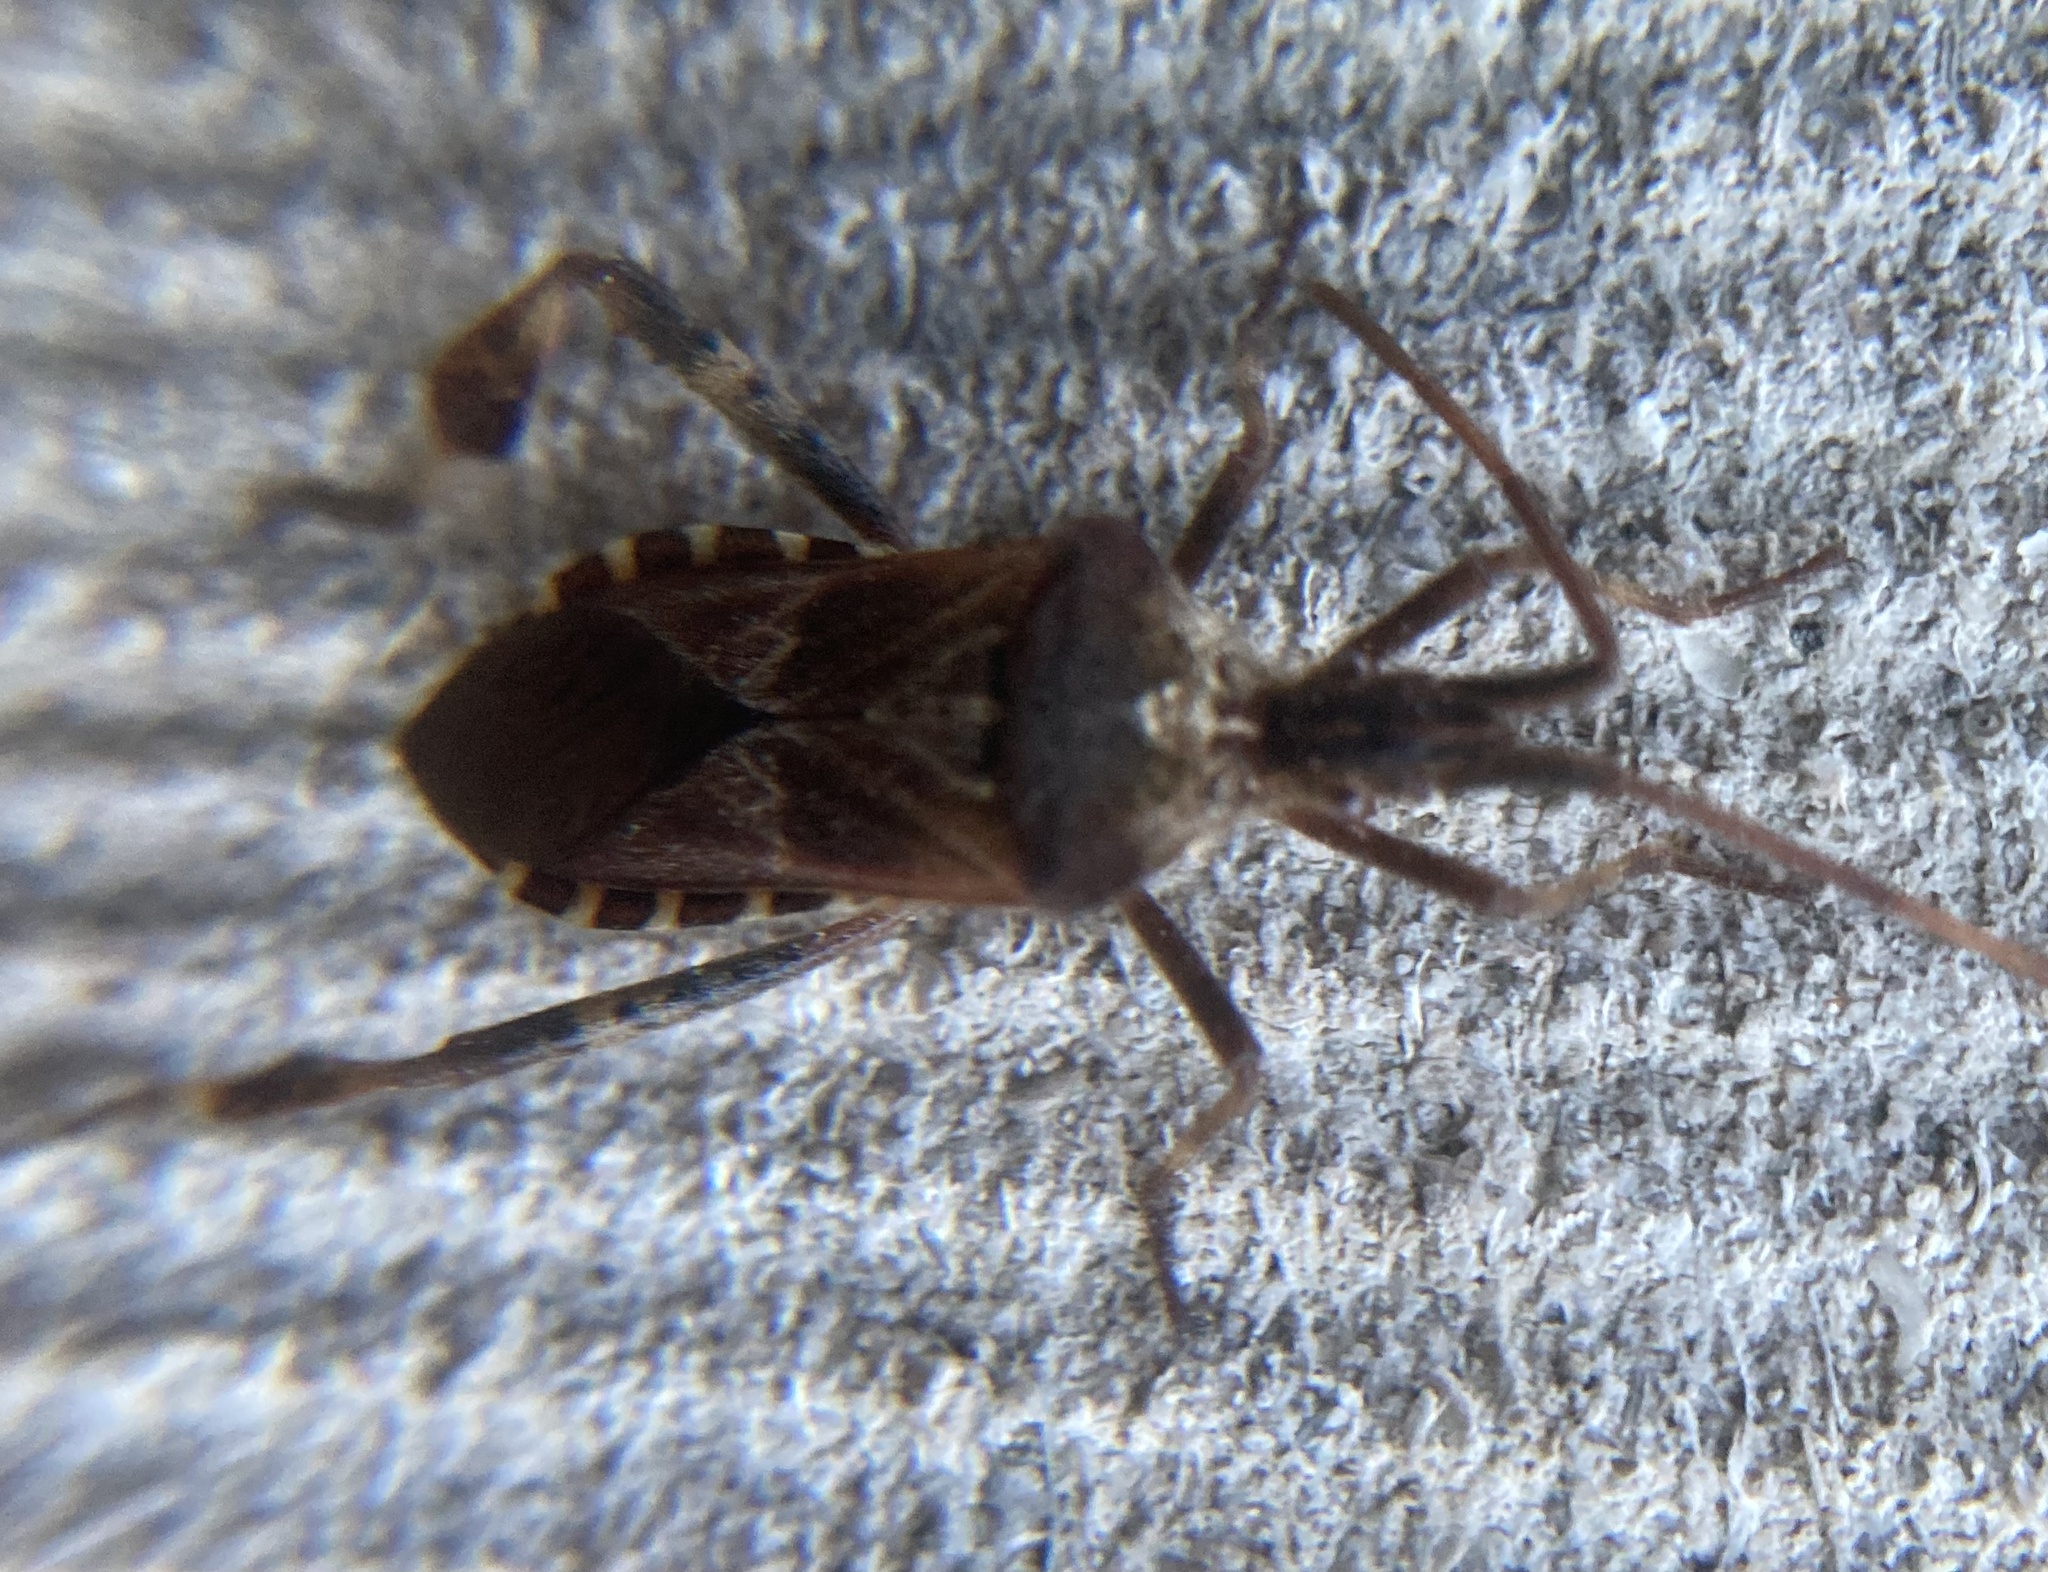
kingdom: Animalia
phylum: Arthropoda
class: Insecta
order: Hemiptera
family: Coreidae
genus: Leptoglossus
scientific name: Leptoglossus occidentalis
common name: Western conifer-seed bug
